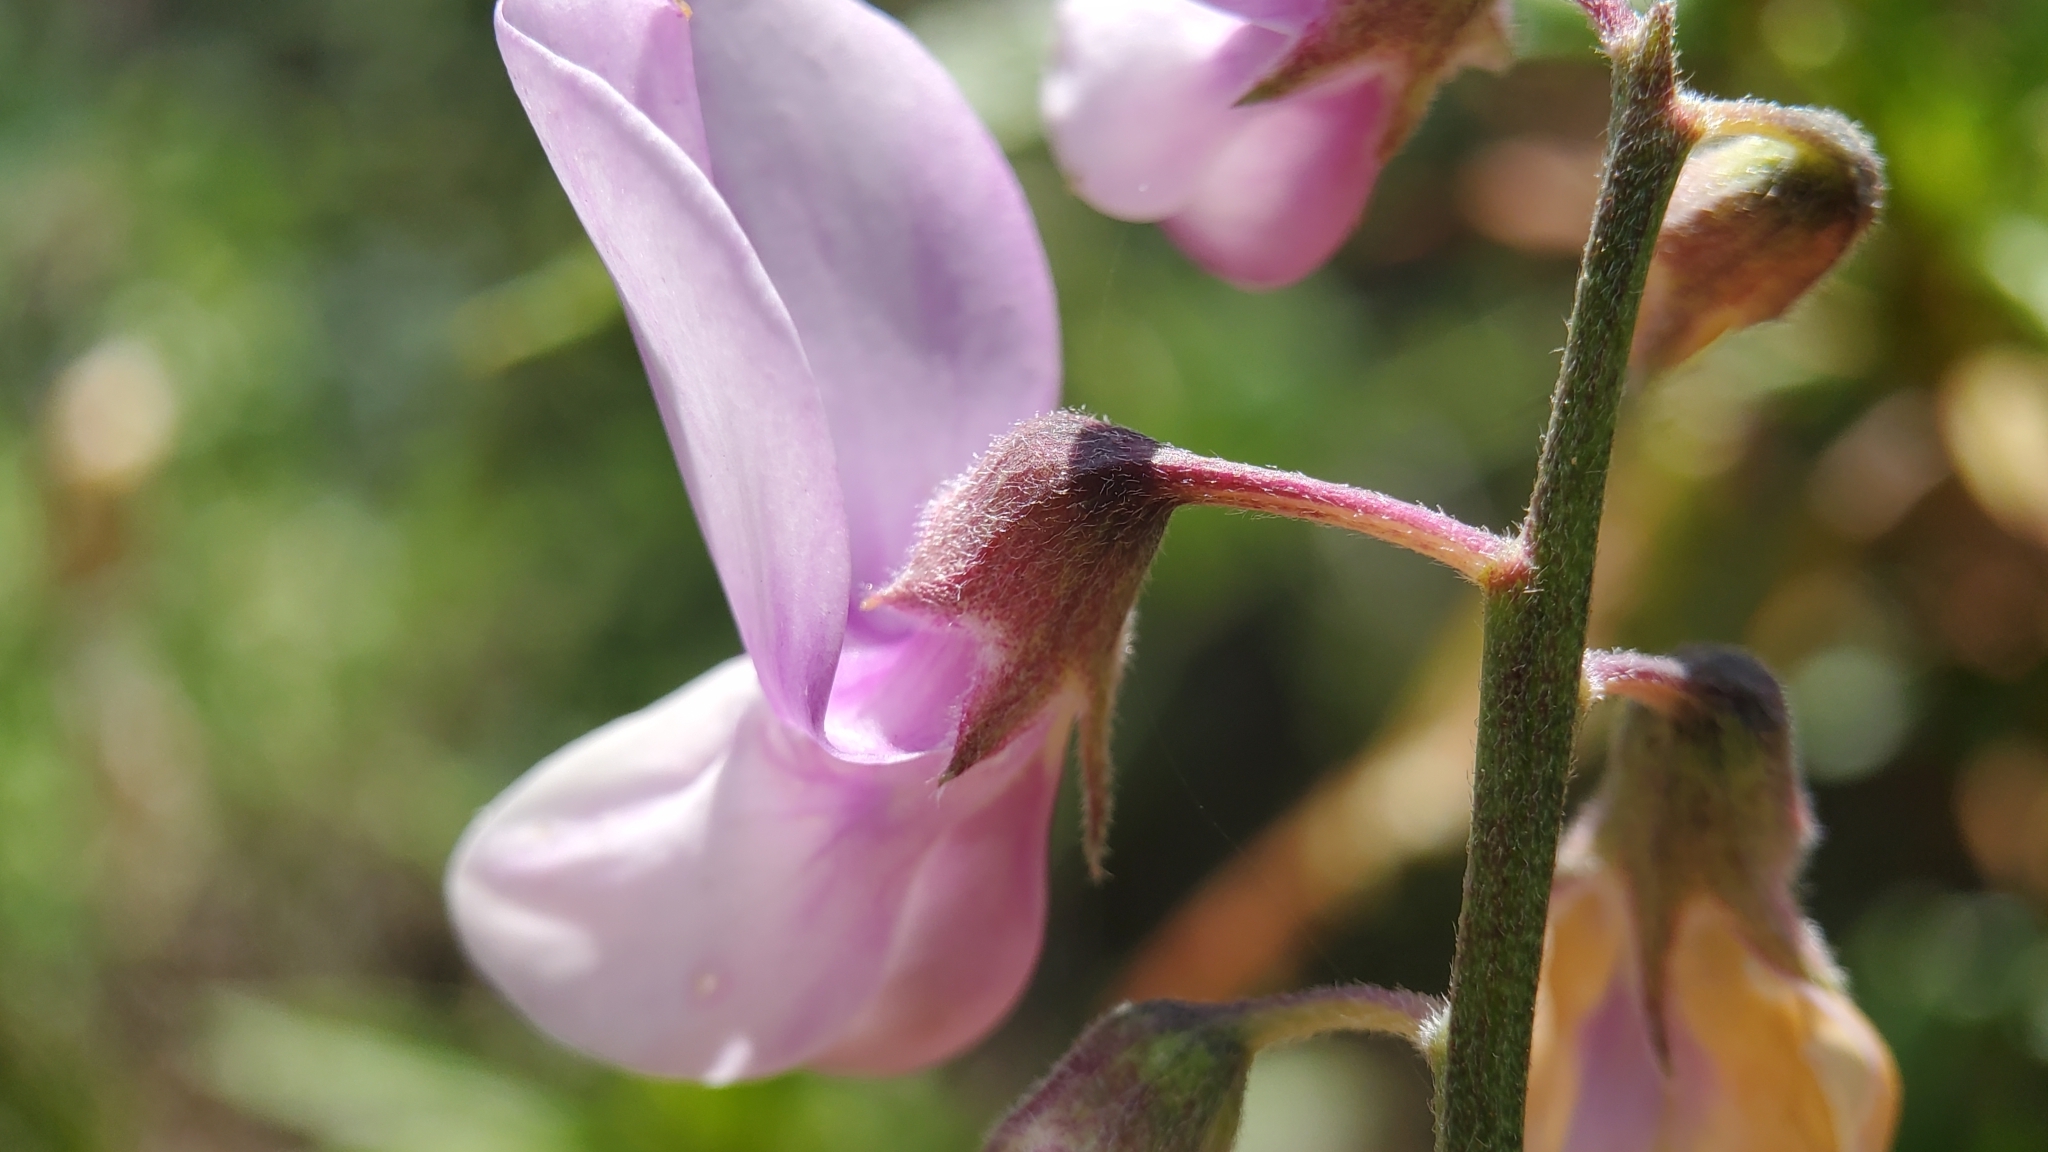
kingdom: Plantae
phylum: Tracheophyta
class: Magnoliopsida
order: Fabales
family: Fabaceae
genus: Lathyrus
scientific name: Lathyrus vestitus
